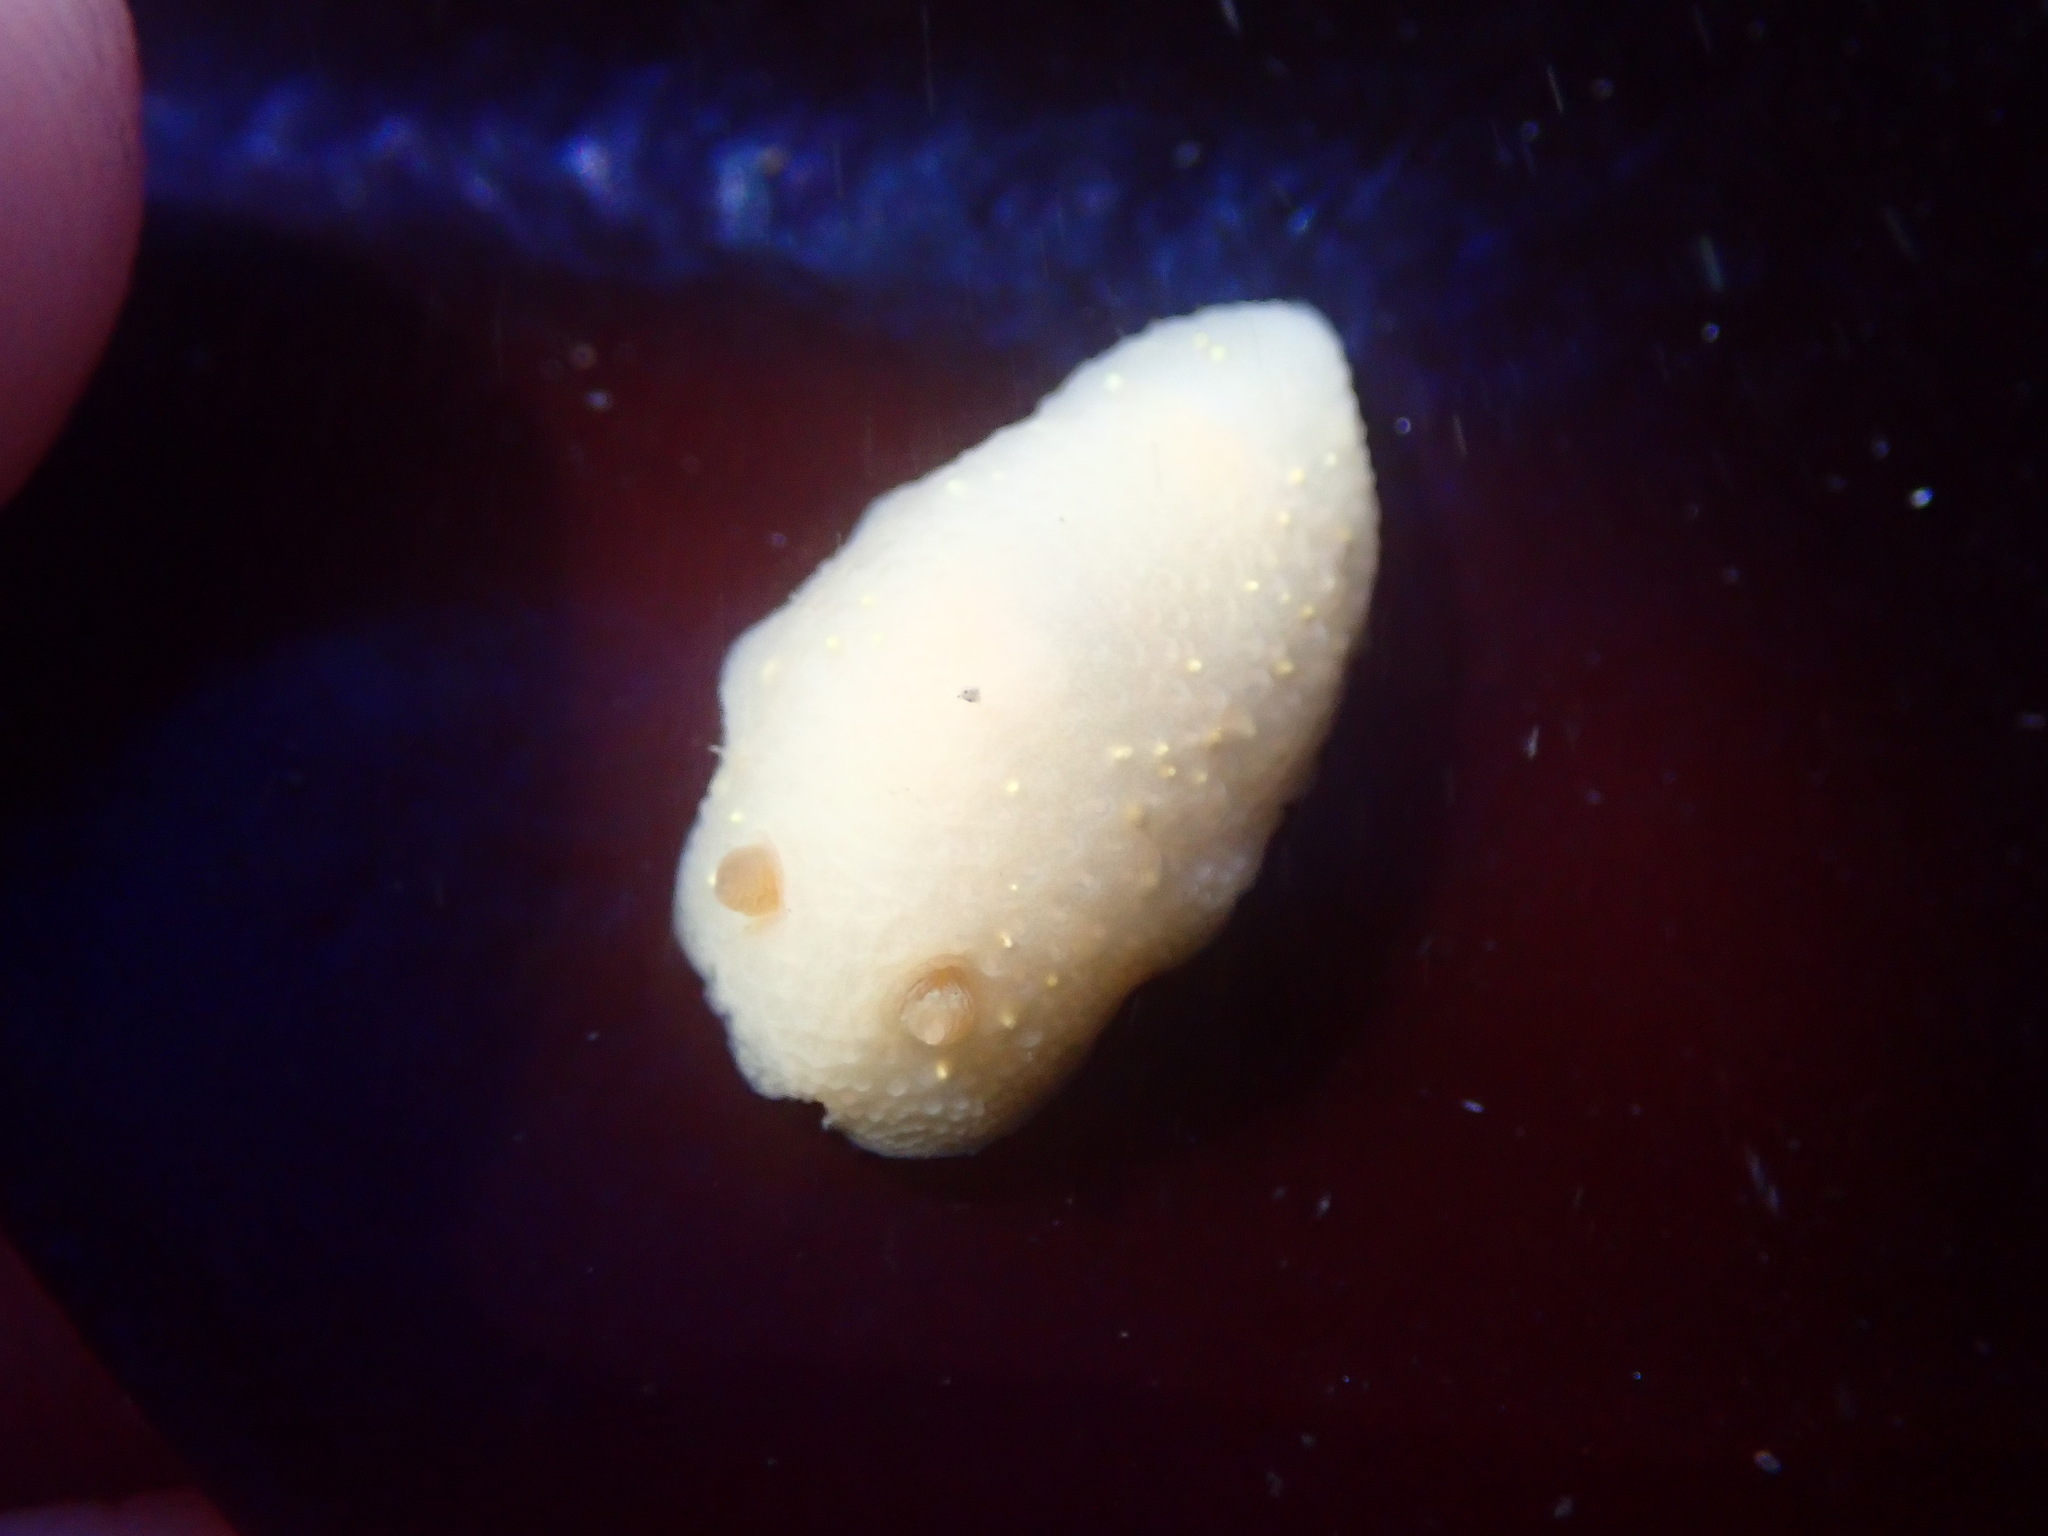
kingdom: Animalia
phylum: Mollusca
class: Gastropoda
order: Nudibranchia
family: Cadlinidae
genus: Cadlina
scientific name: Cadlina modesta
